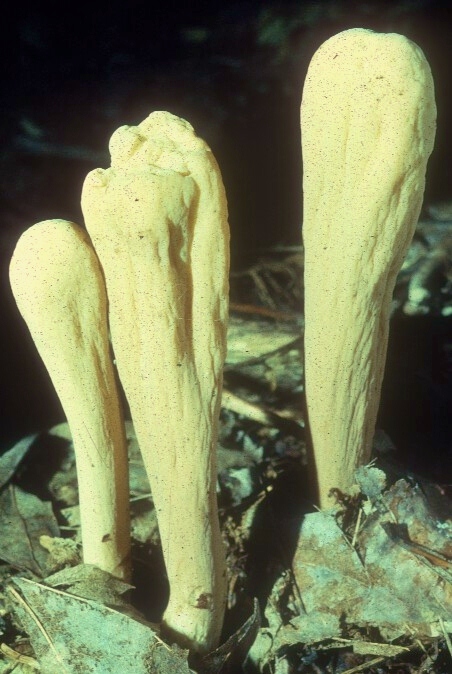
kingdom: Fungi
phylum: Basidiomycota
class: Agaricomycetes
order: Gomphales
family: Clavariadelphaceae
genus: Clavariadelphus
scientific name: Clavariadelphus pistillaris
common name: Giant club
